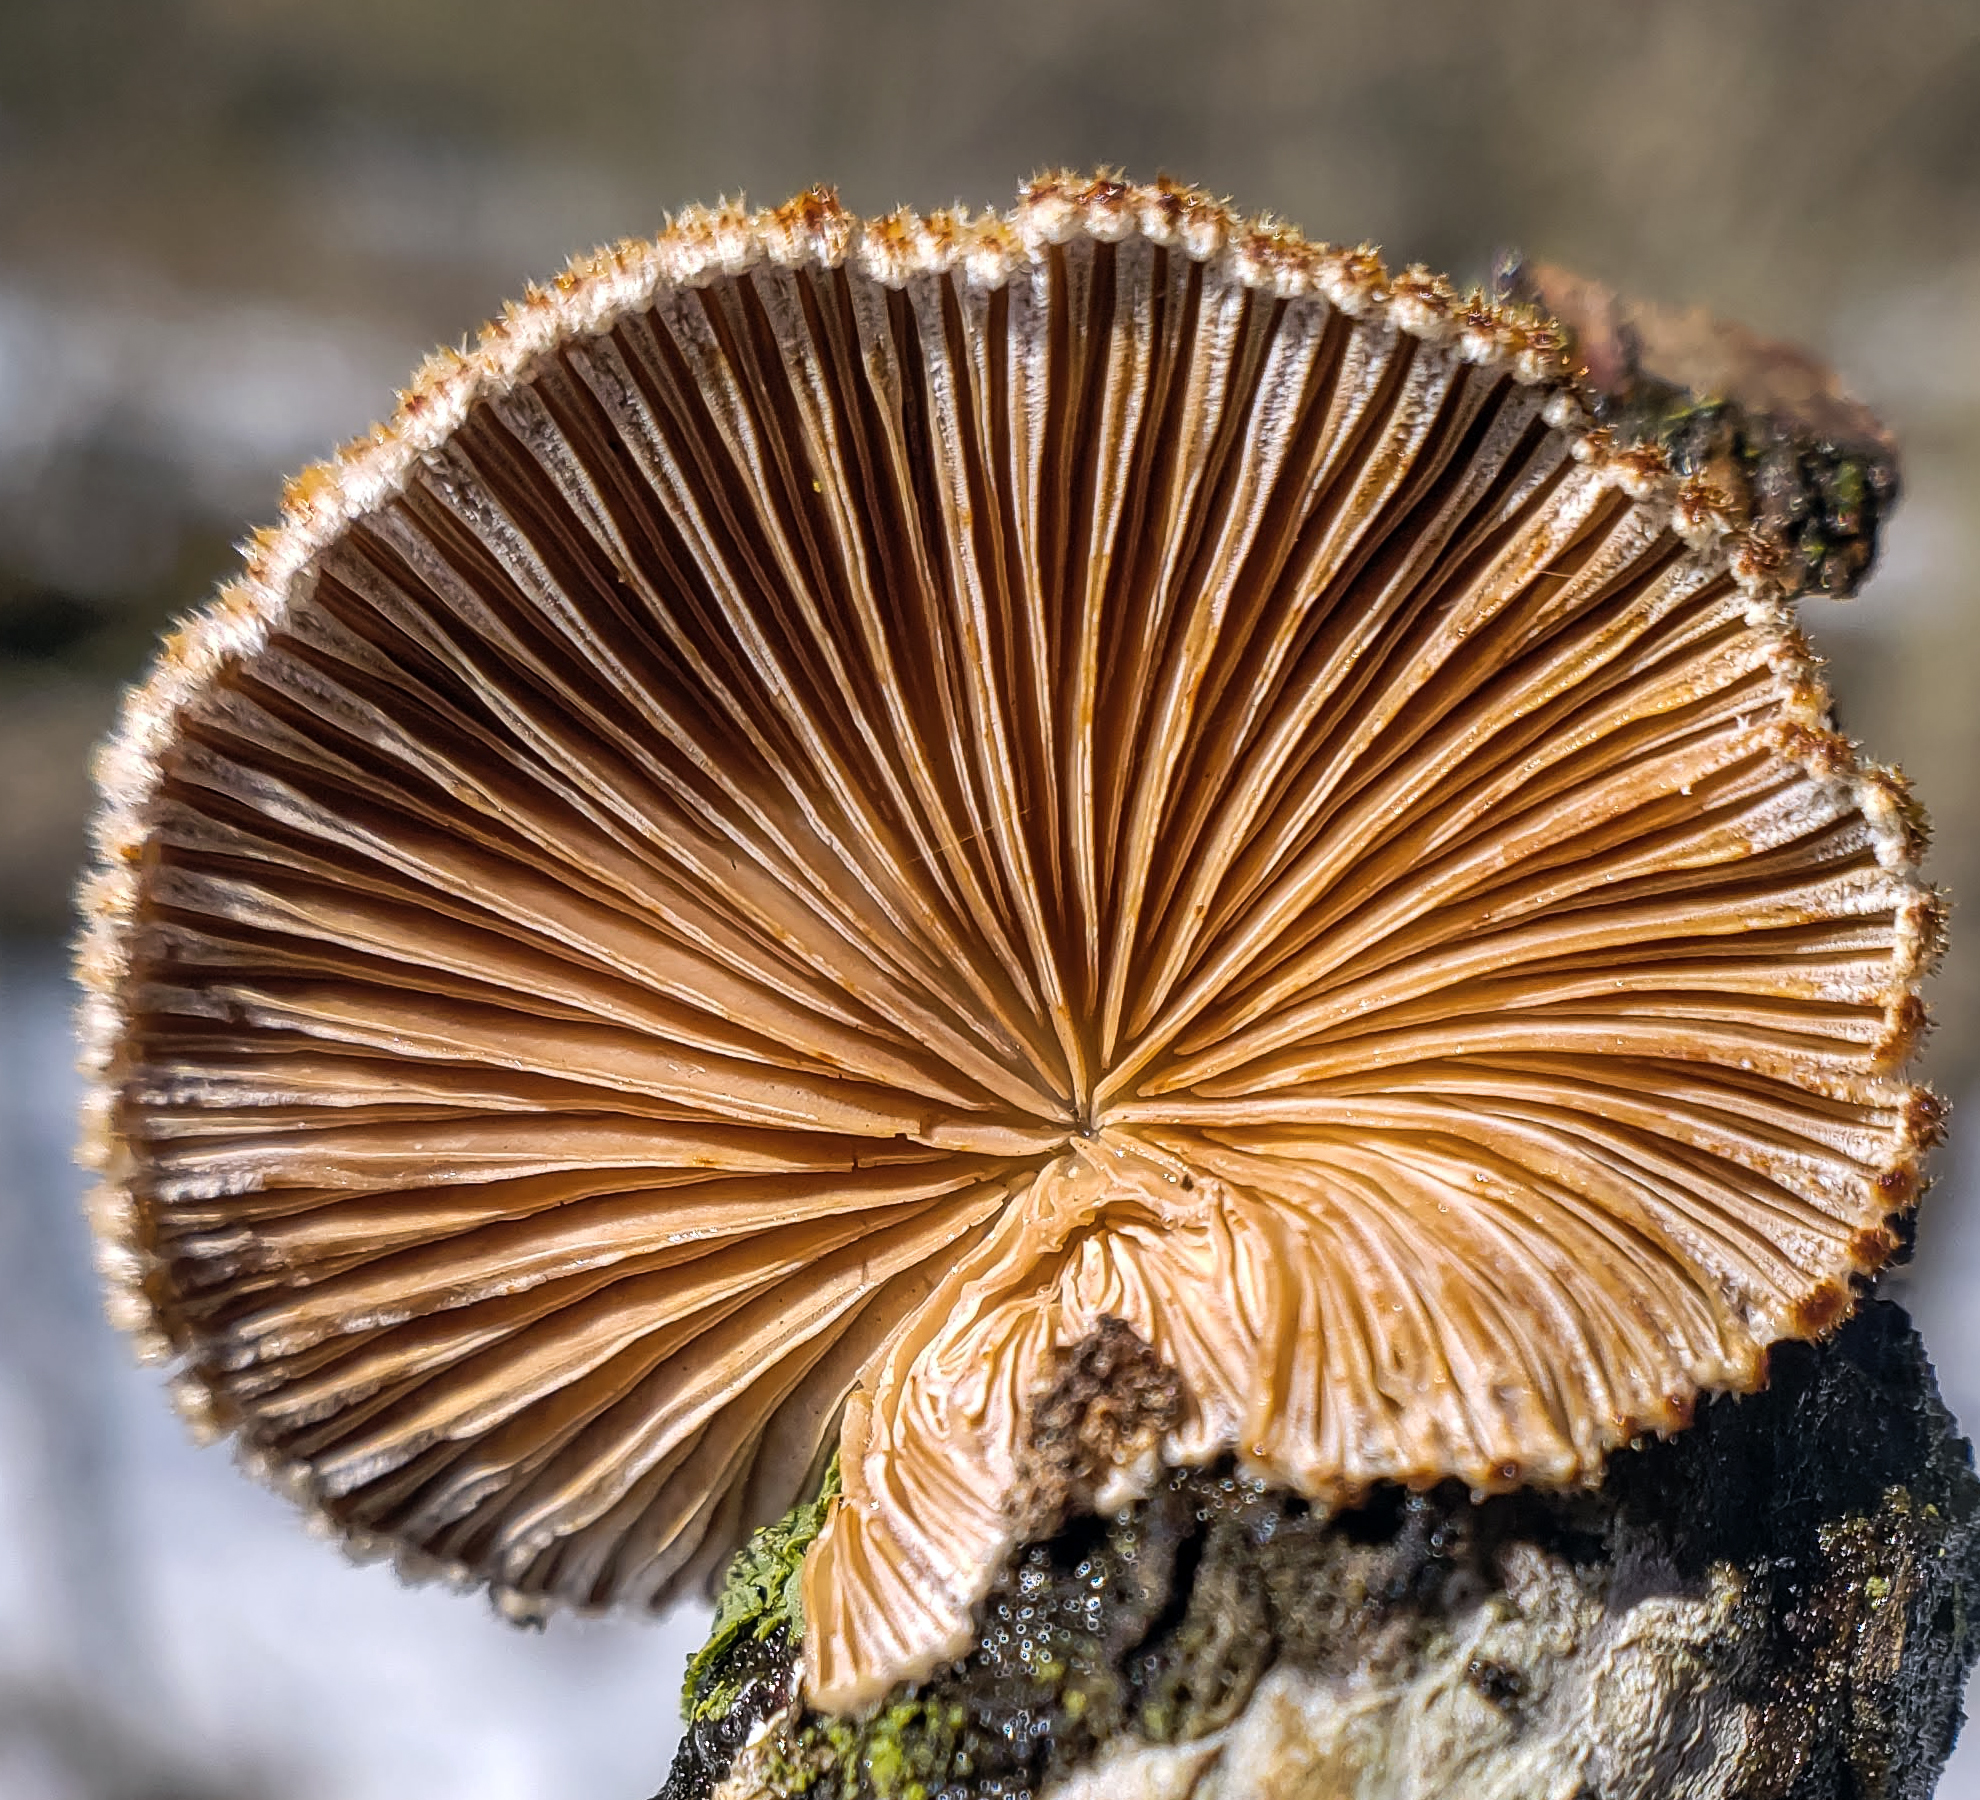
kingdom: Fungi
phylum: Basidiomycota
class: Agaricomycetes
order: Agaricales
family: Schizophyllaceae
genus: Schizophyllum
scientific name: Schizophyllum commune
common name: Common porecrust
